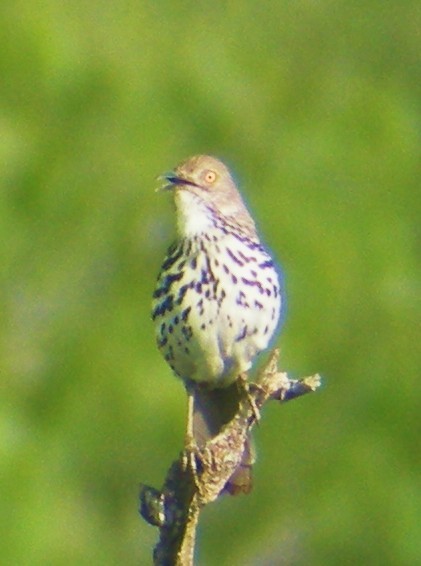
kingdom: Animalia
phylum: Chordata
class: Aves
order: Passeriformes
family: Mimidae
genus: Toxostoma
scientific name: Toxostoma longirostre
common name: Long-billed thrasher
